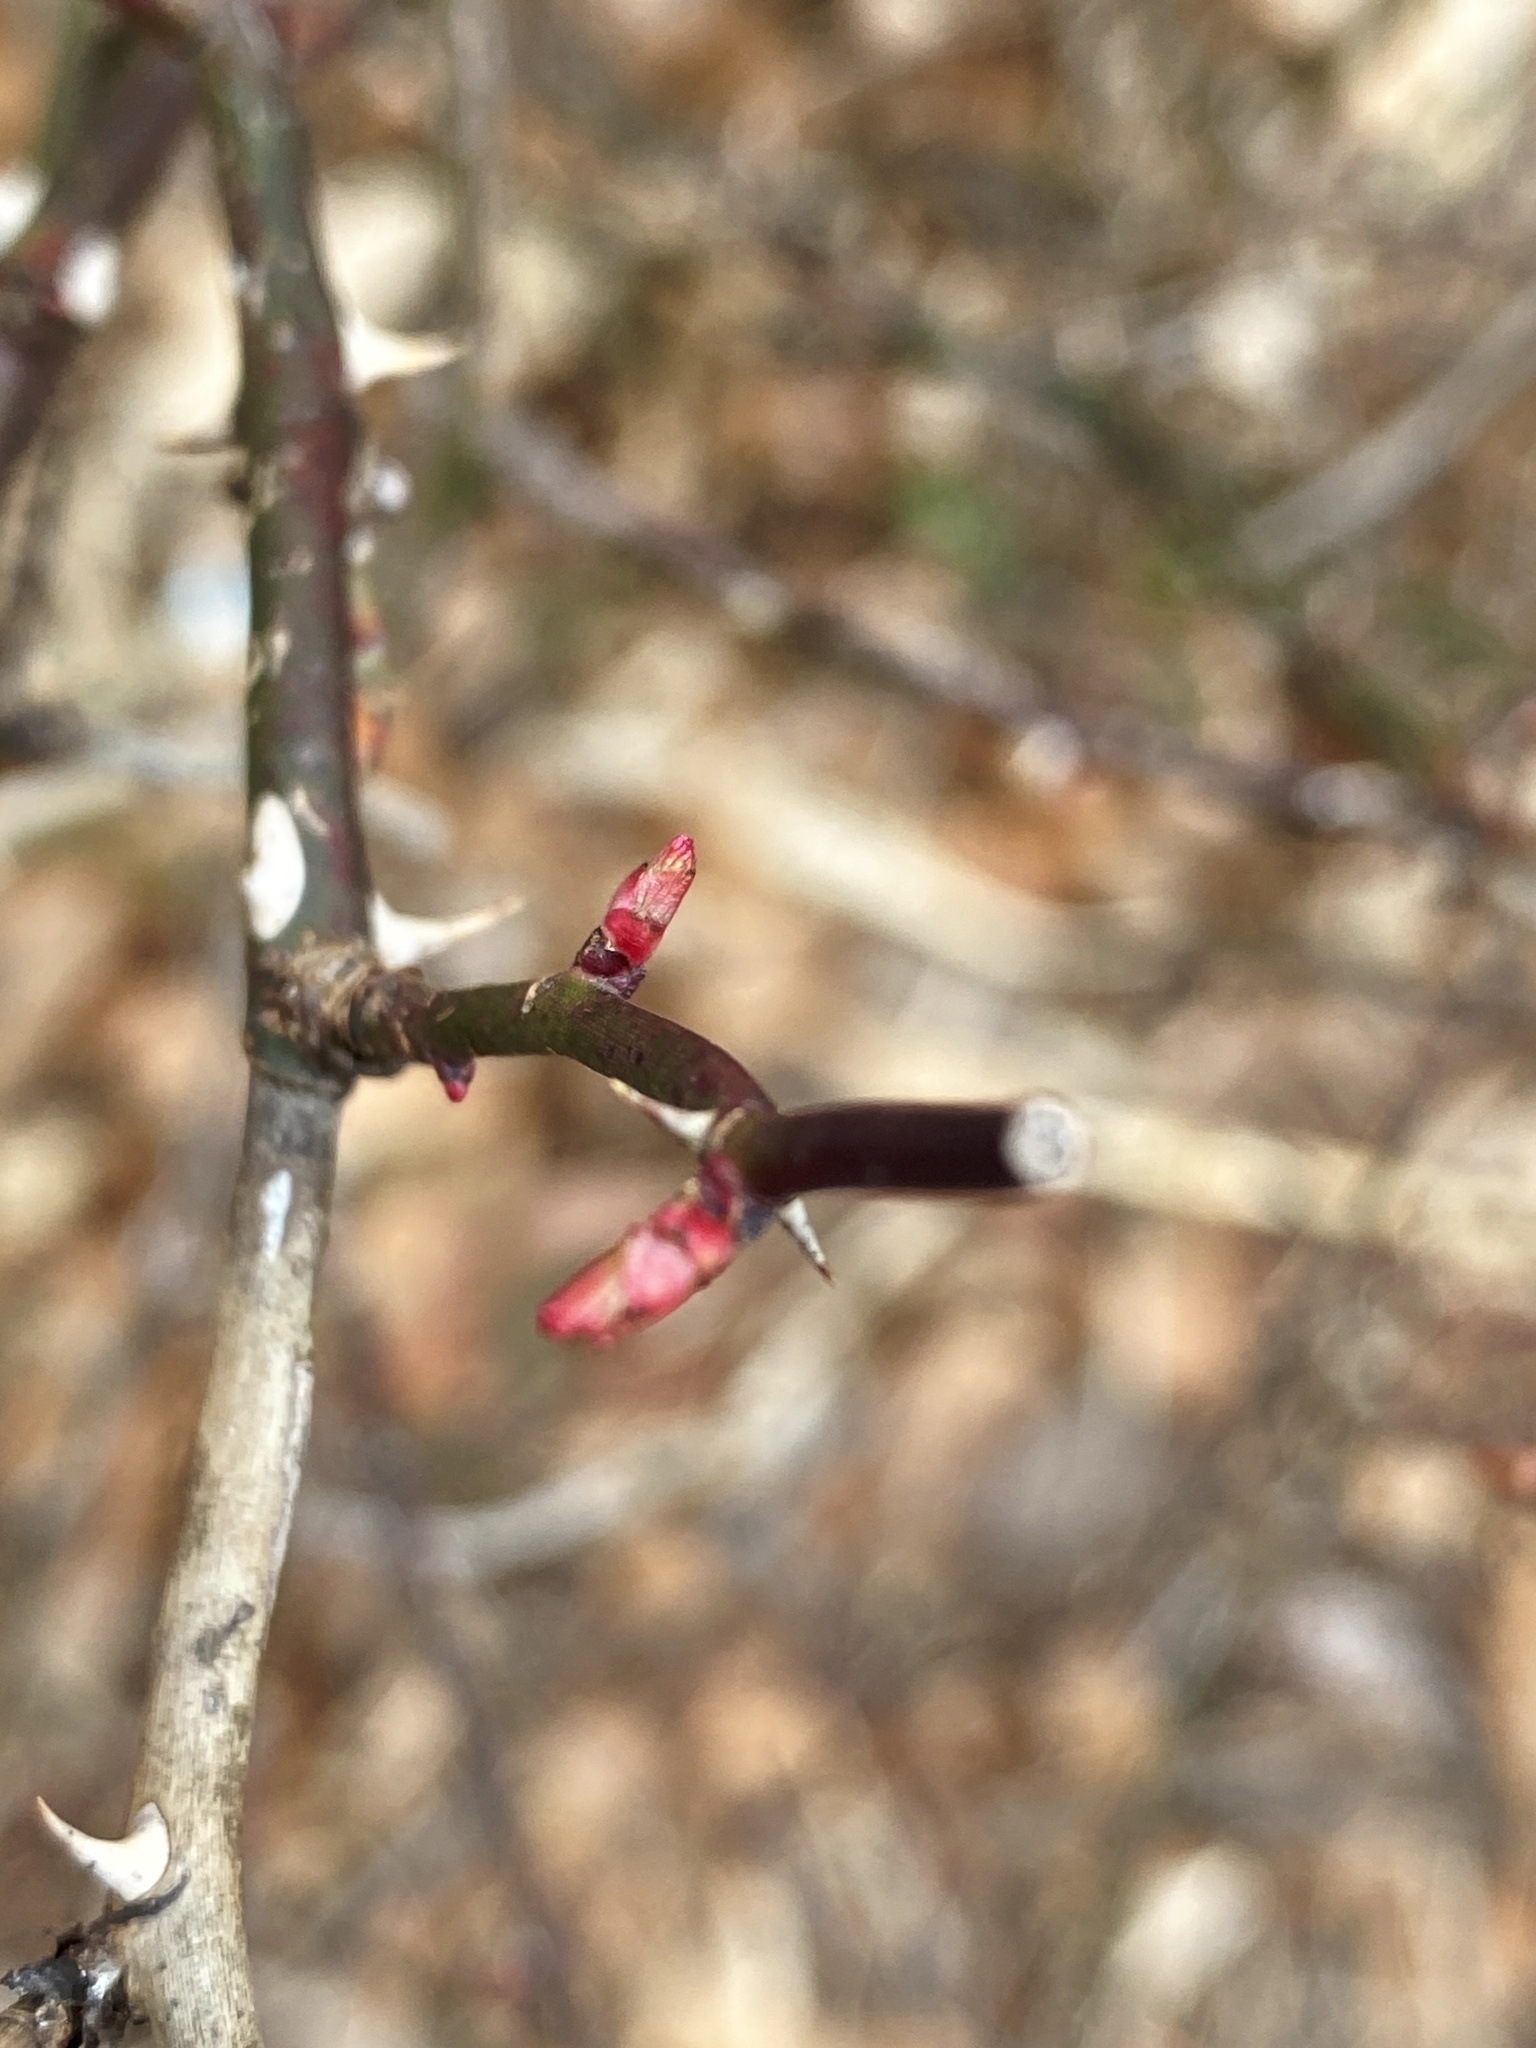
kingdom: Plantae
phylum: Tracheophyta
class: Magnoliopsida
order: Rosales
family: Rosaceae
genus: Rosa
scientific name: Rosa multiflora
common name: Multiflora rose
